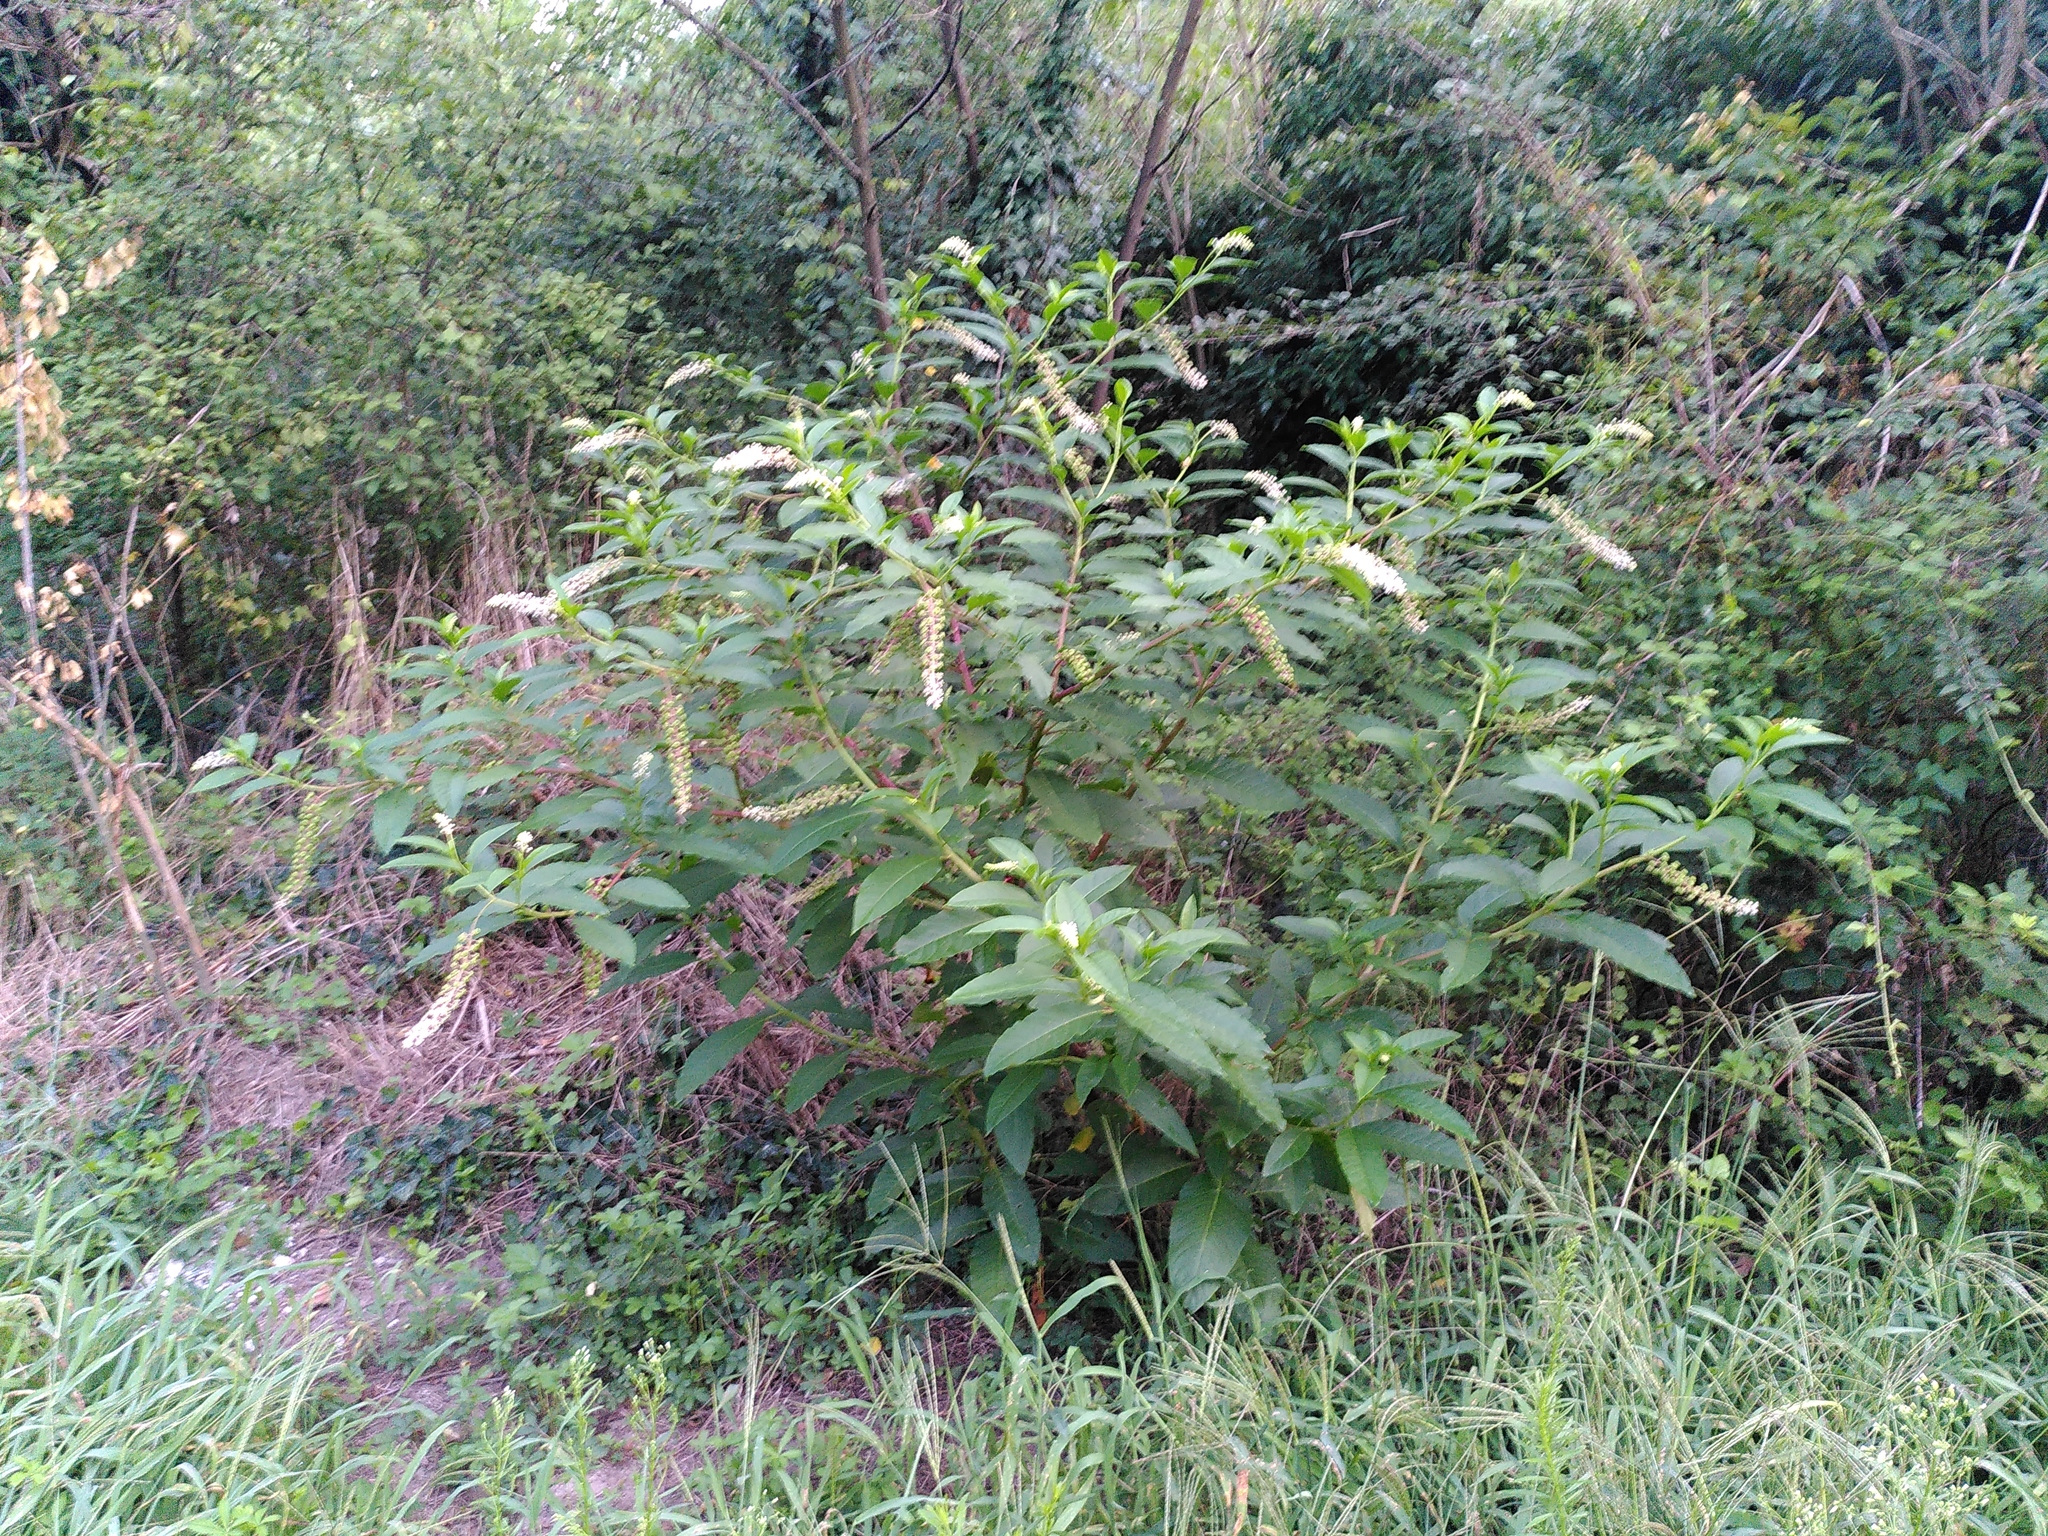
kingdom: Plantae
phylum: Tracheophyta
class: Magnoliopsida
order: Caryophyllales
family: Phytolaccaceae
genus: Phytolacca
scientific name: Phytolacca americana
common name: American pokeweed
